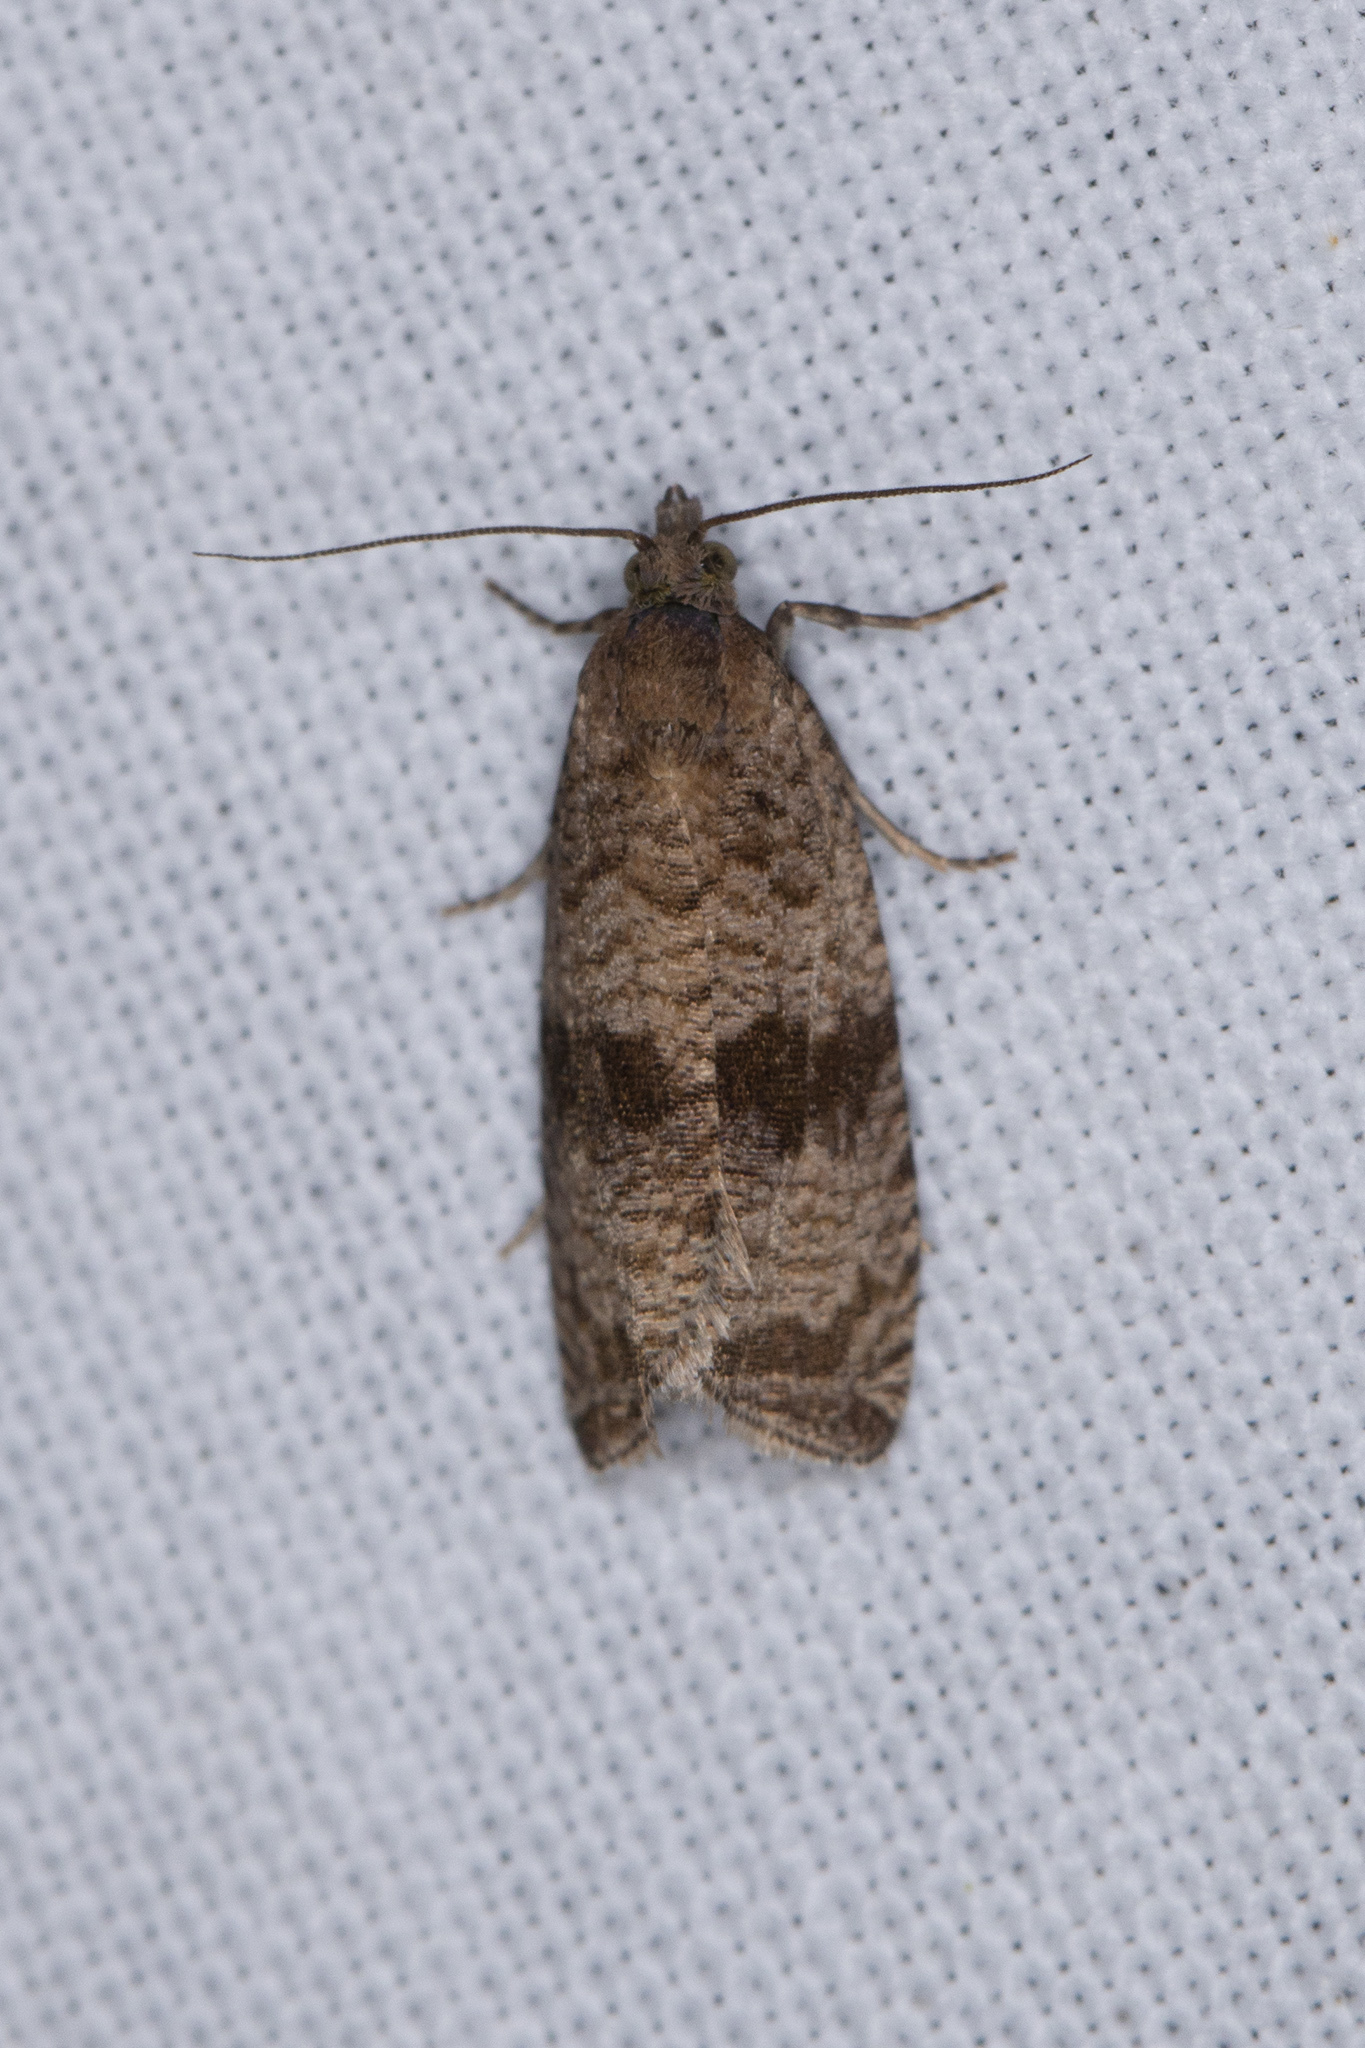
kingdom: Animalia
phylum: Arthropoda
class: Insecta
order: Lepidoptera
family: Tortricidae
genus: Celypha
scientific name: Celypha striana
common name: Barred marble
